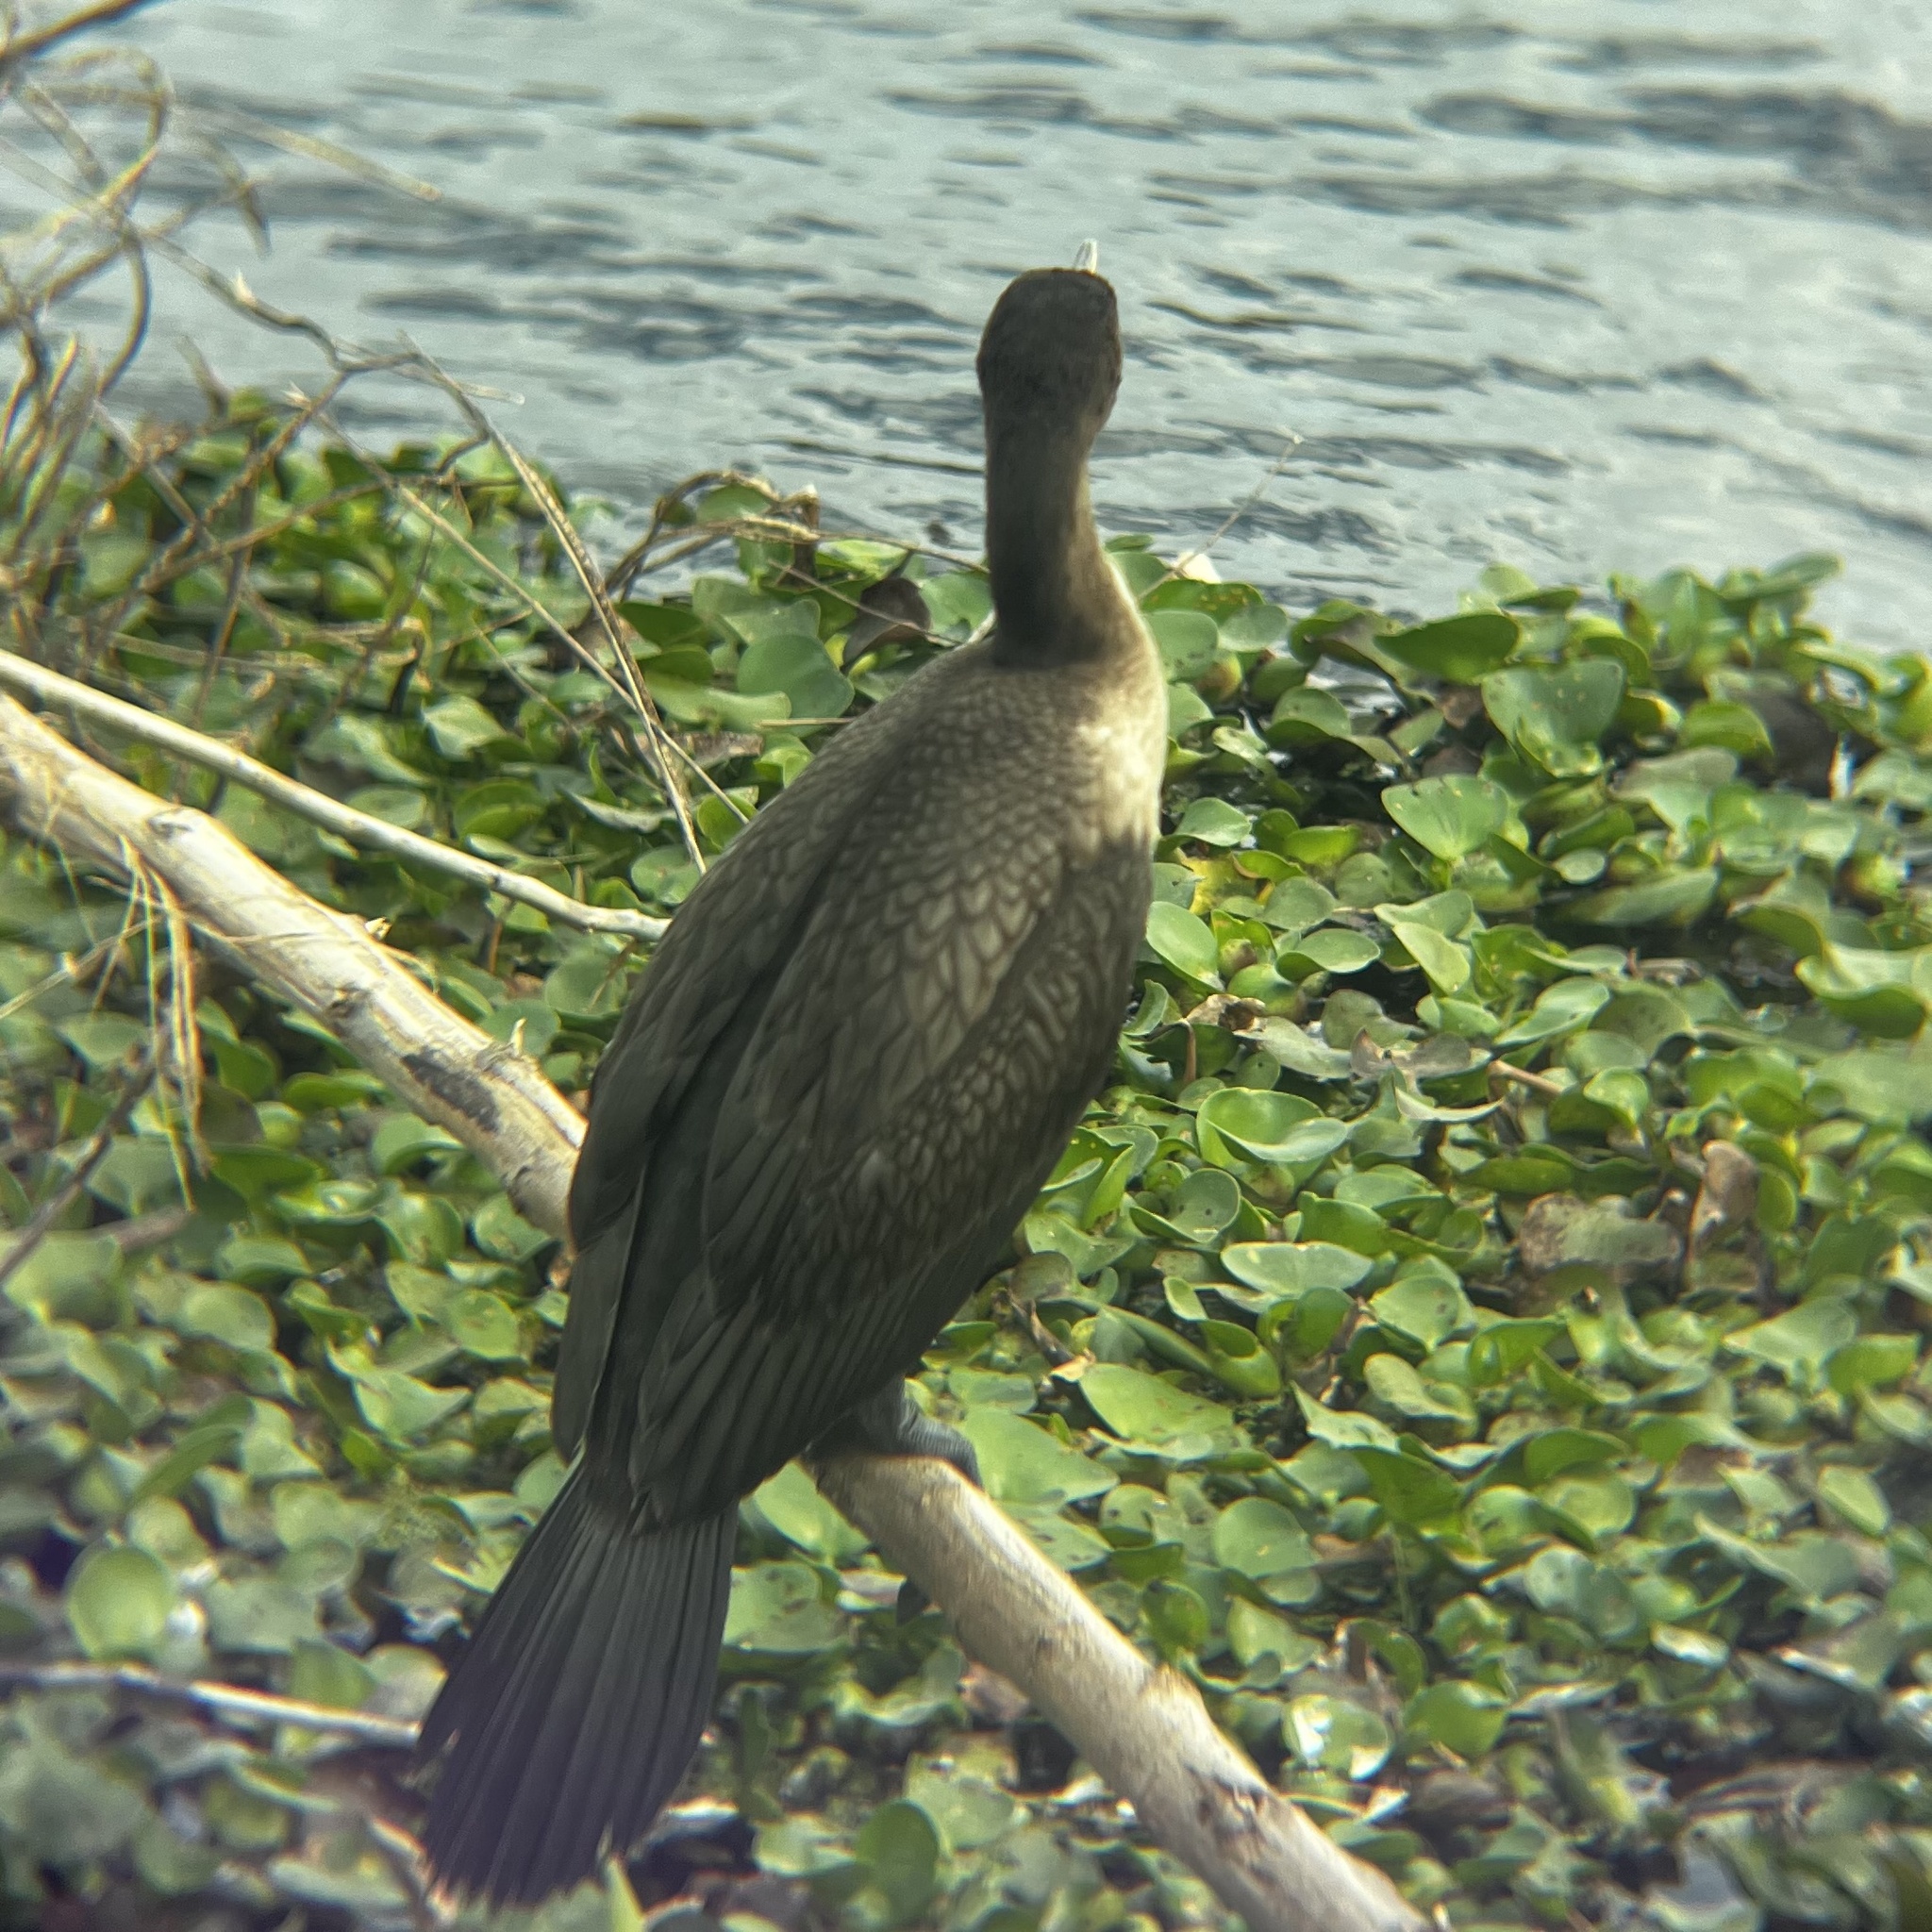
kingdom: Animalia
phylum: Chordata
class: Aves
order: Suliformes
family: Phalacrocoracidae
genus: Phalacrocorax
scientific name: Phalacrocorax auritus
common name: Double-crested cormorant
